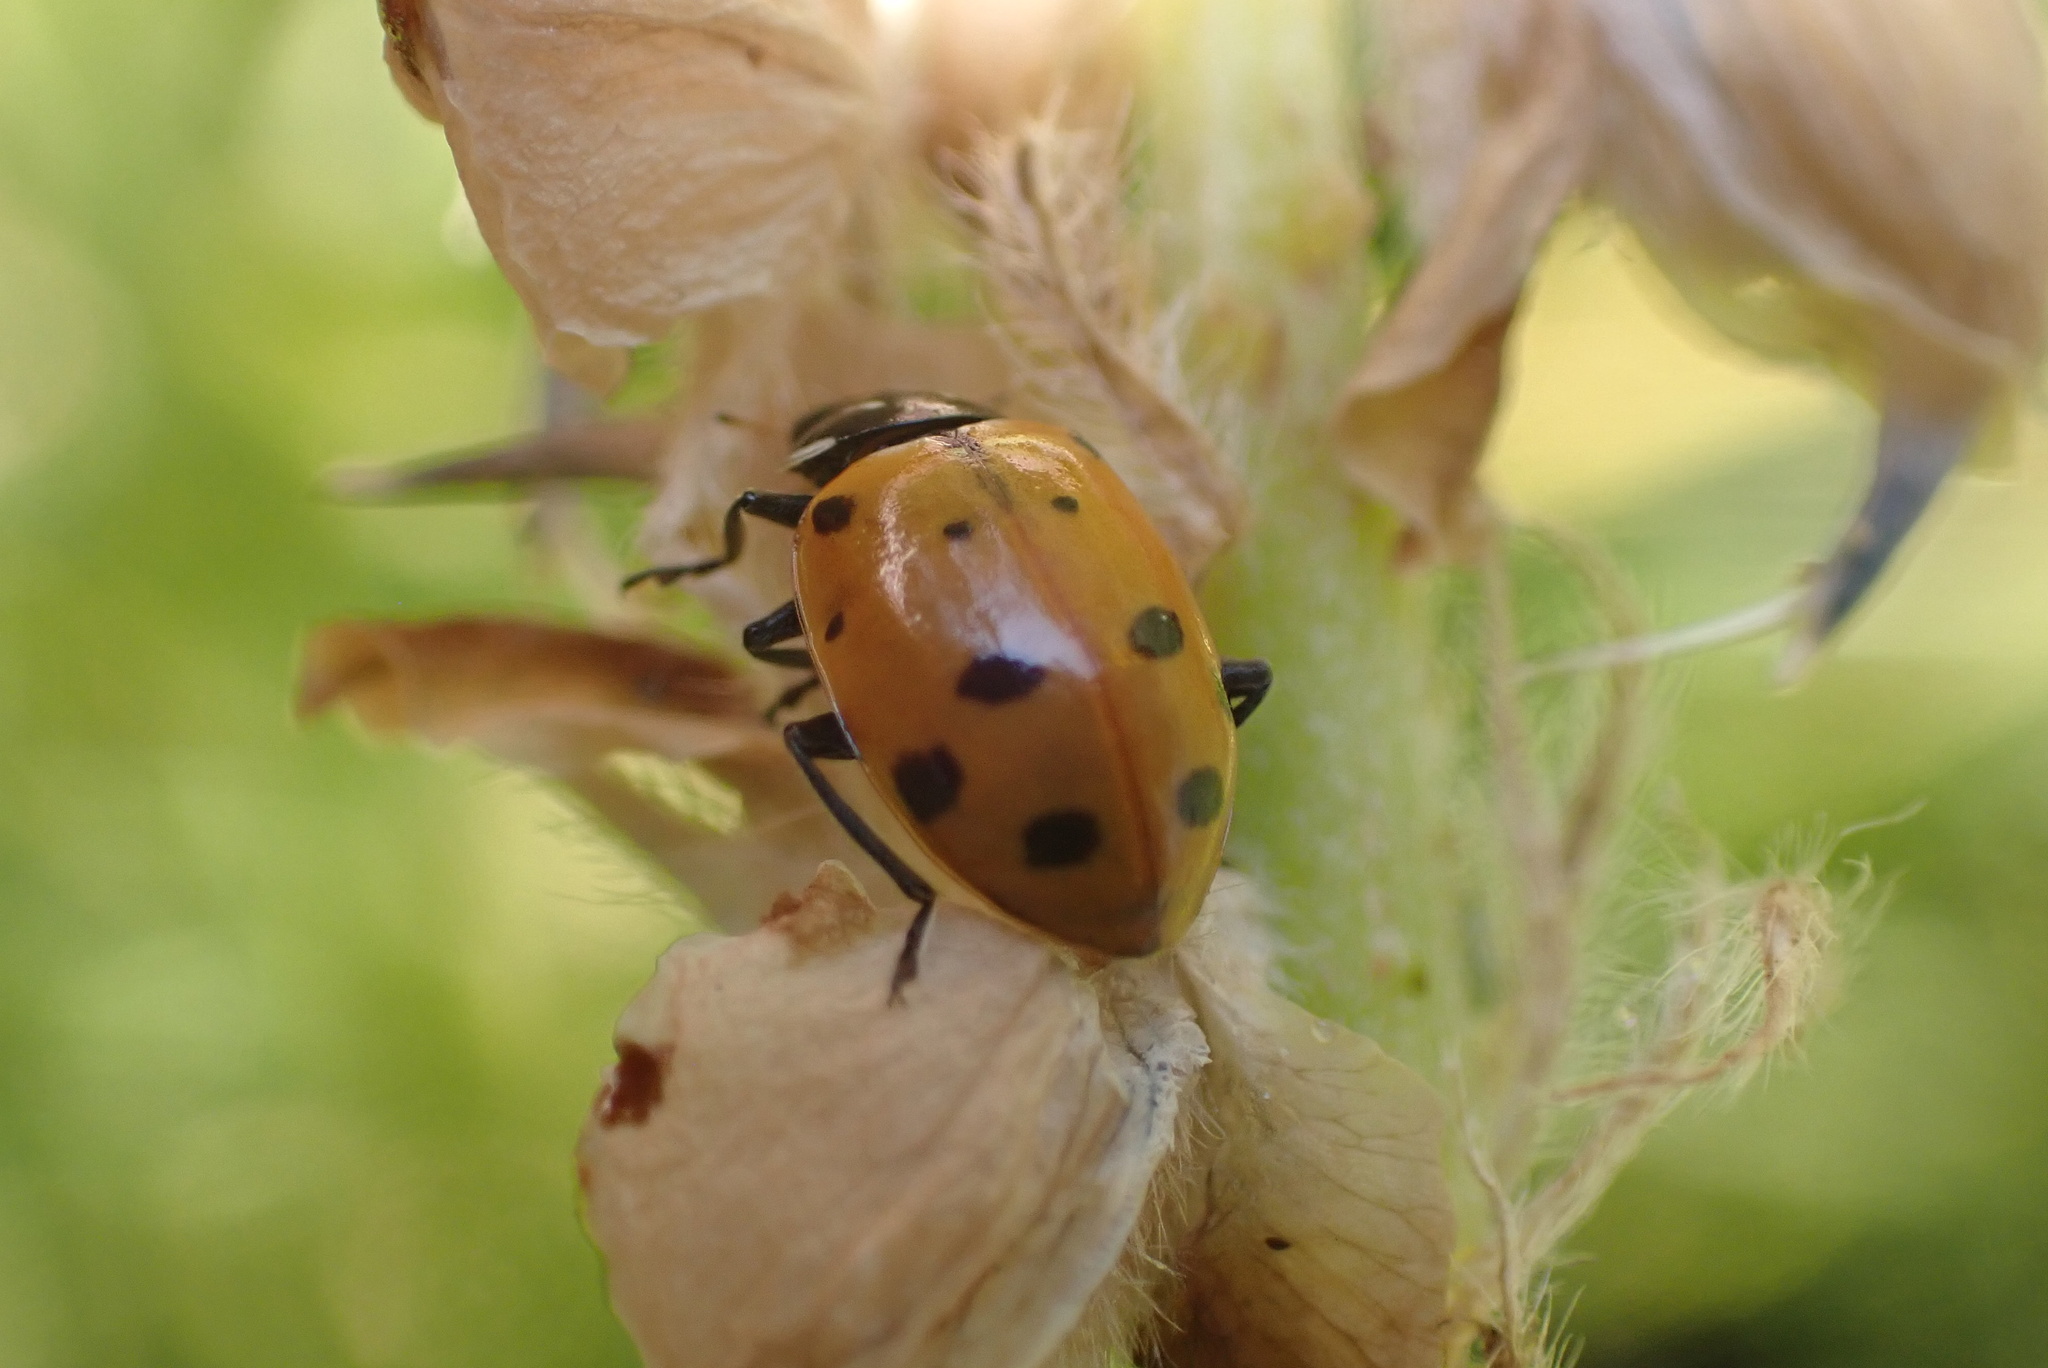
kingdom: Animalia
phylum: Arthropoda
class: Insecta
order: Coleoptera
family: Coccinellidae
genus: Hippodamia
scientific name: Hippodamia convergens
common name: Convergent lady beetle
